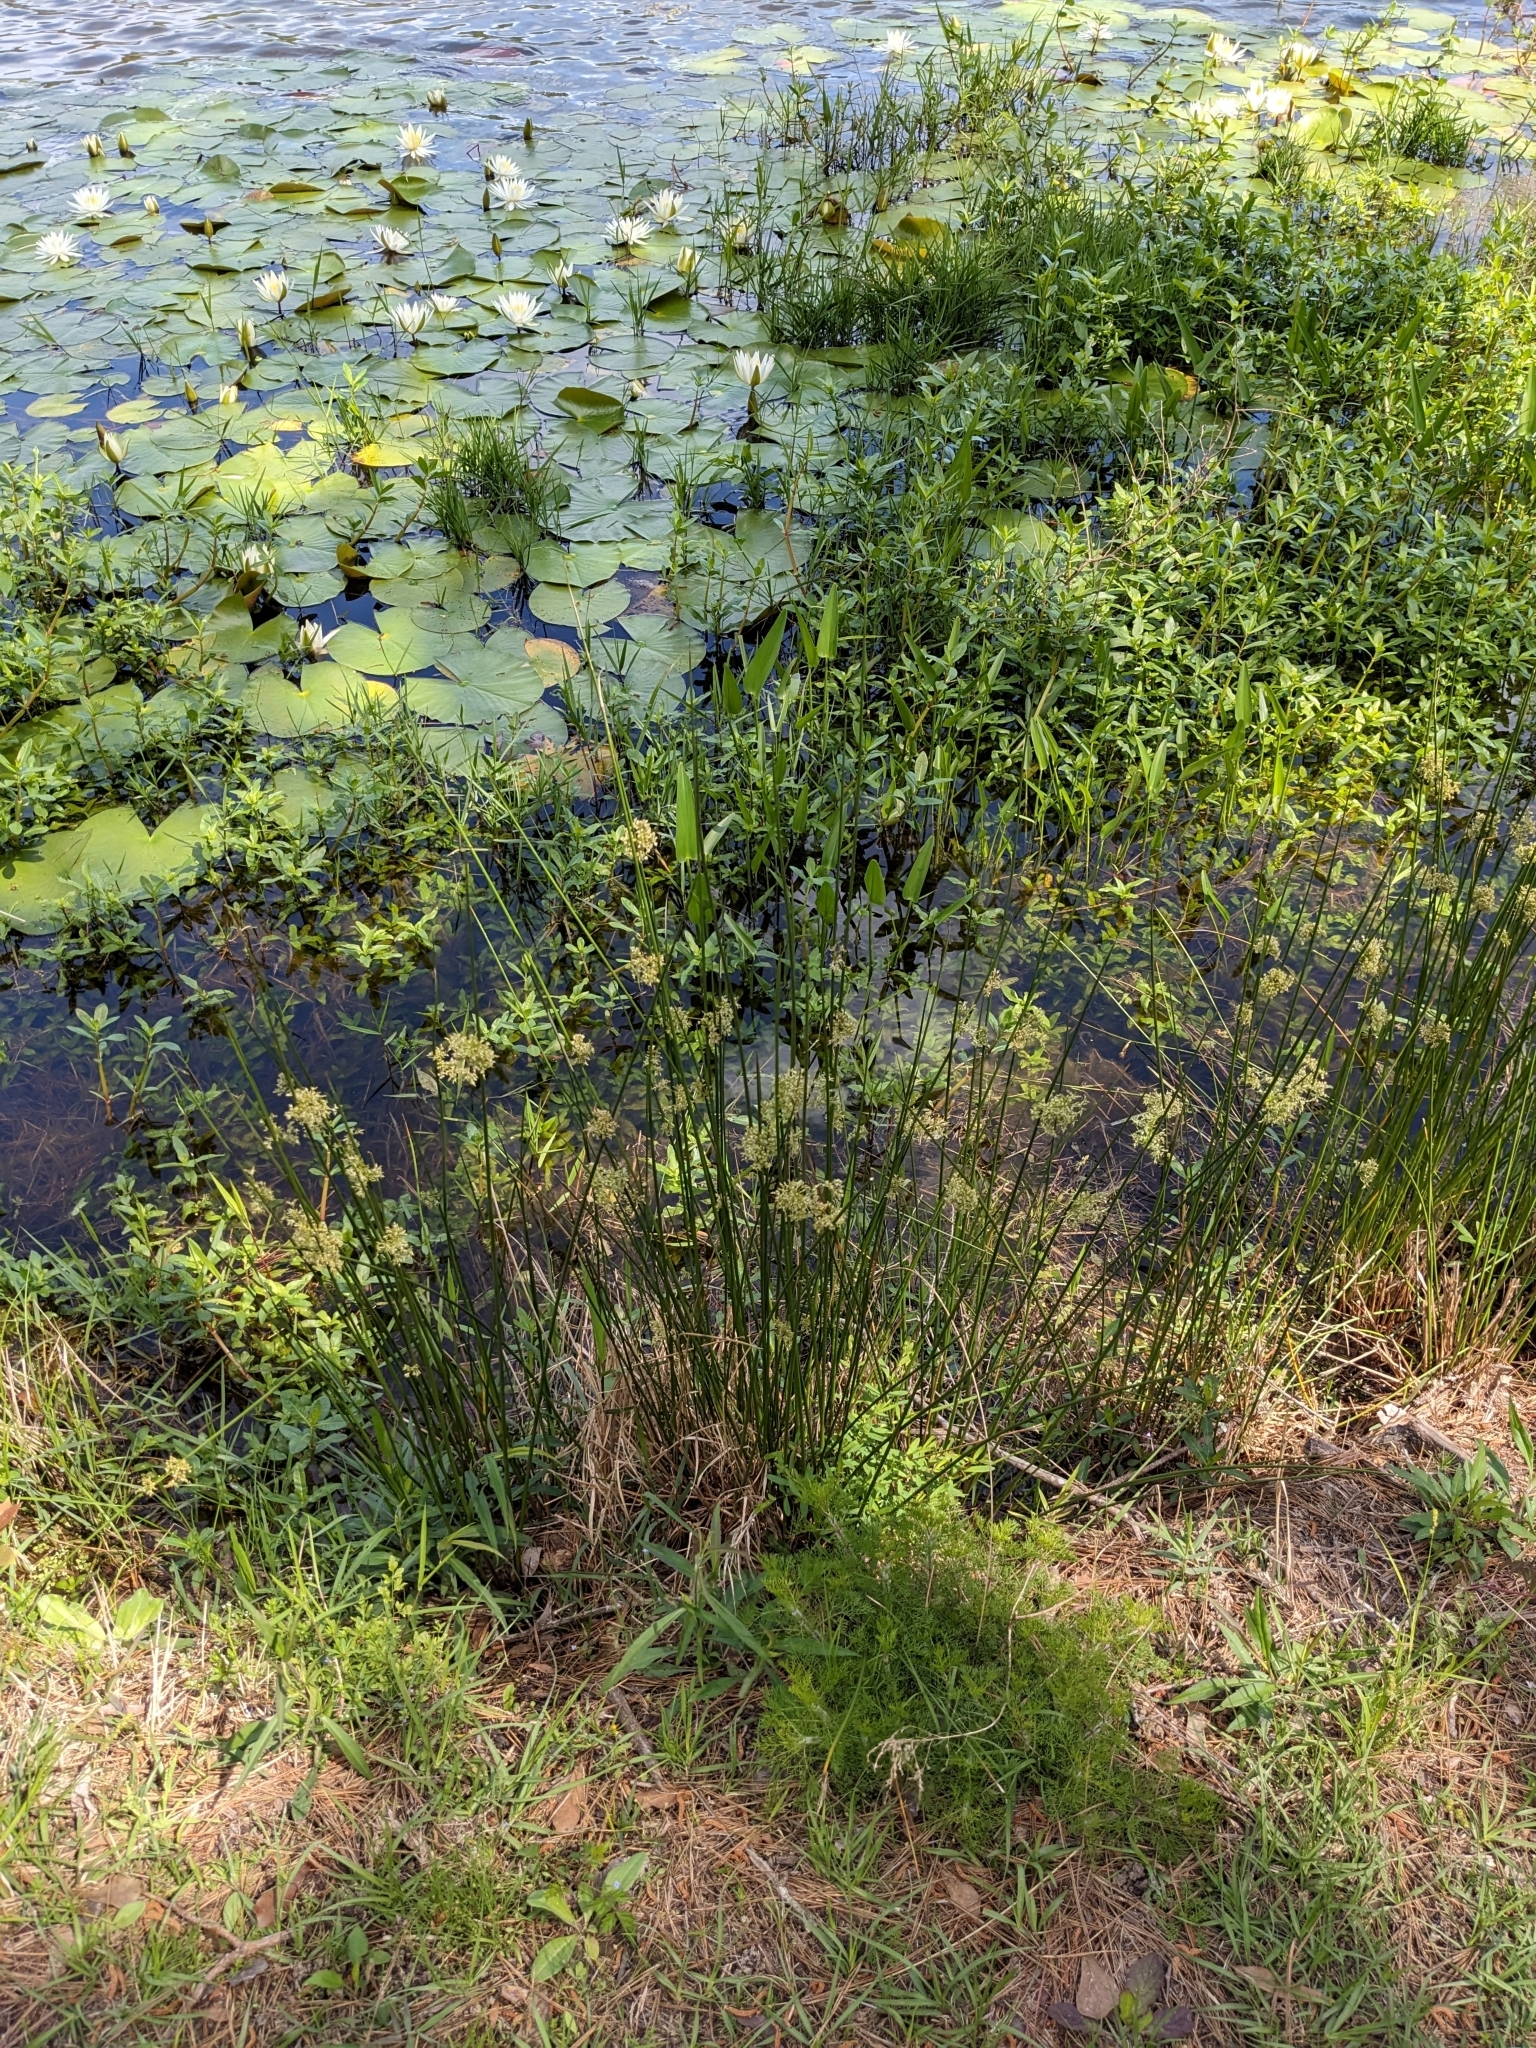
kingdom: Plantae
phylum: Tracheophyta
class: Liliopsida
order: Poales
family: Juncaceae
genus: Juncus
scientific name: Juncus effusus
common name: Soft rush
